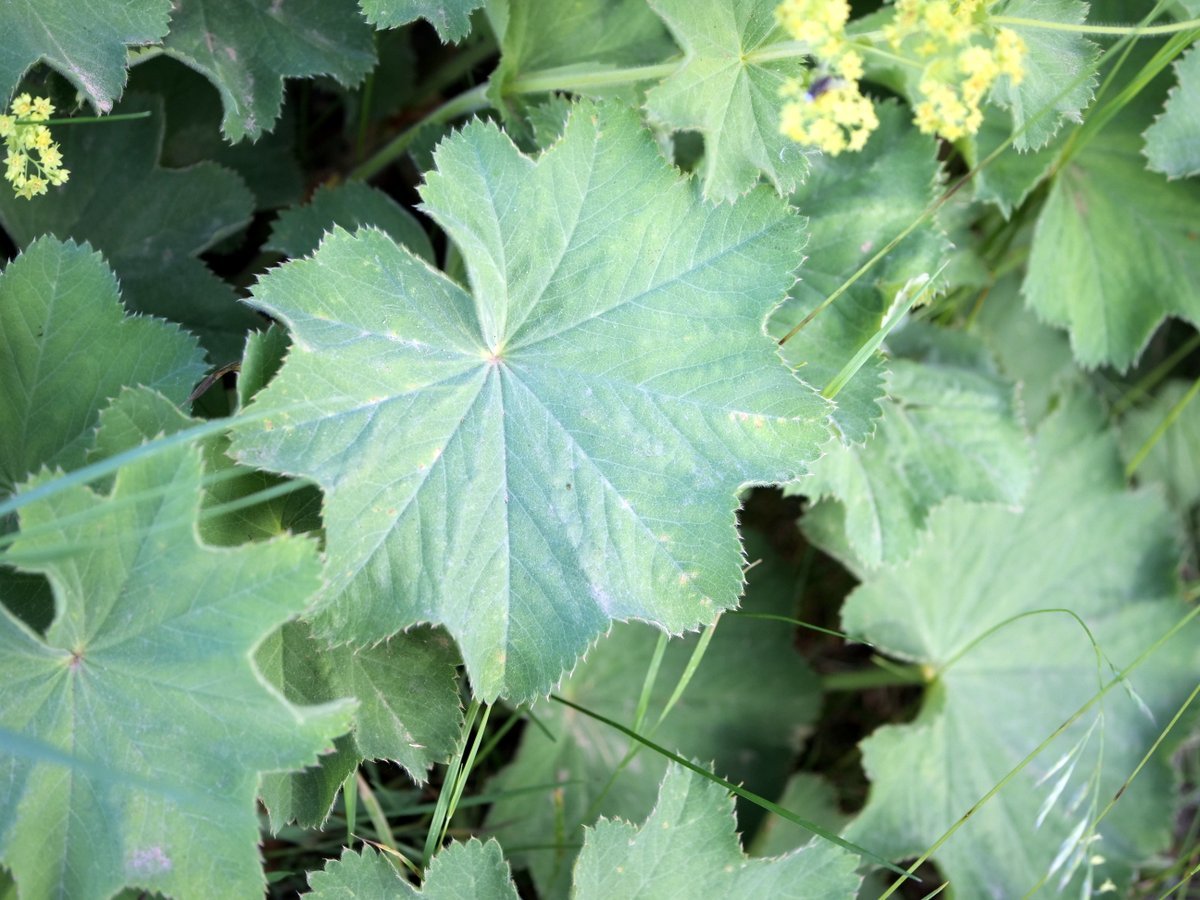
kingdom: Plantae
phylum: Tracheophyta
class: Magnoliopsida
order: Rosales
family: Rosaceae
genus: Alchemilla
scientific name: Alchemilla mollis
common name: Lady's-mantle
